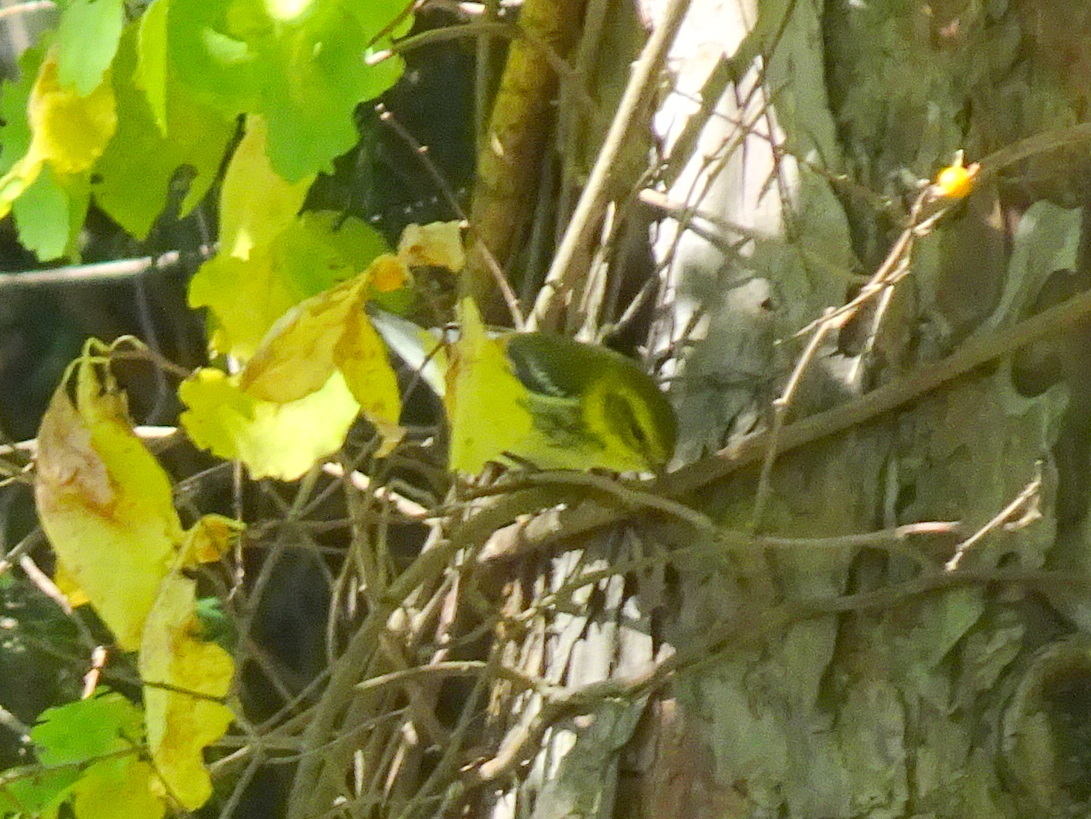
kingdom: Animalia
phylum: Chordata
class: Aves
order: Passeriformes
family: Parulidae
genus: Setophaga
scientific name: Setophaga virens
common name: Black-throated green warbler
